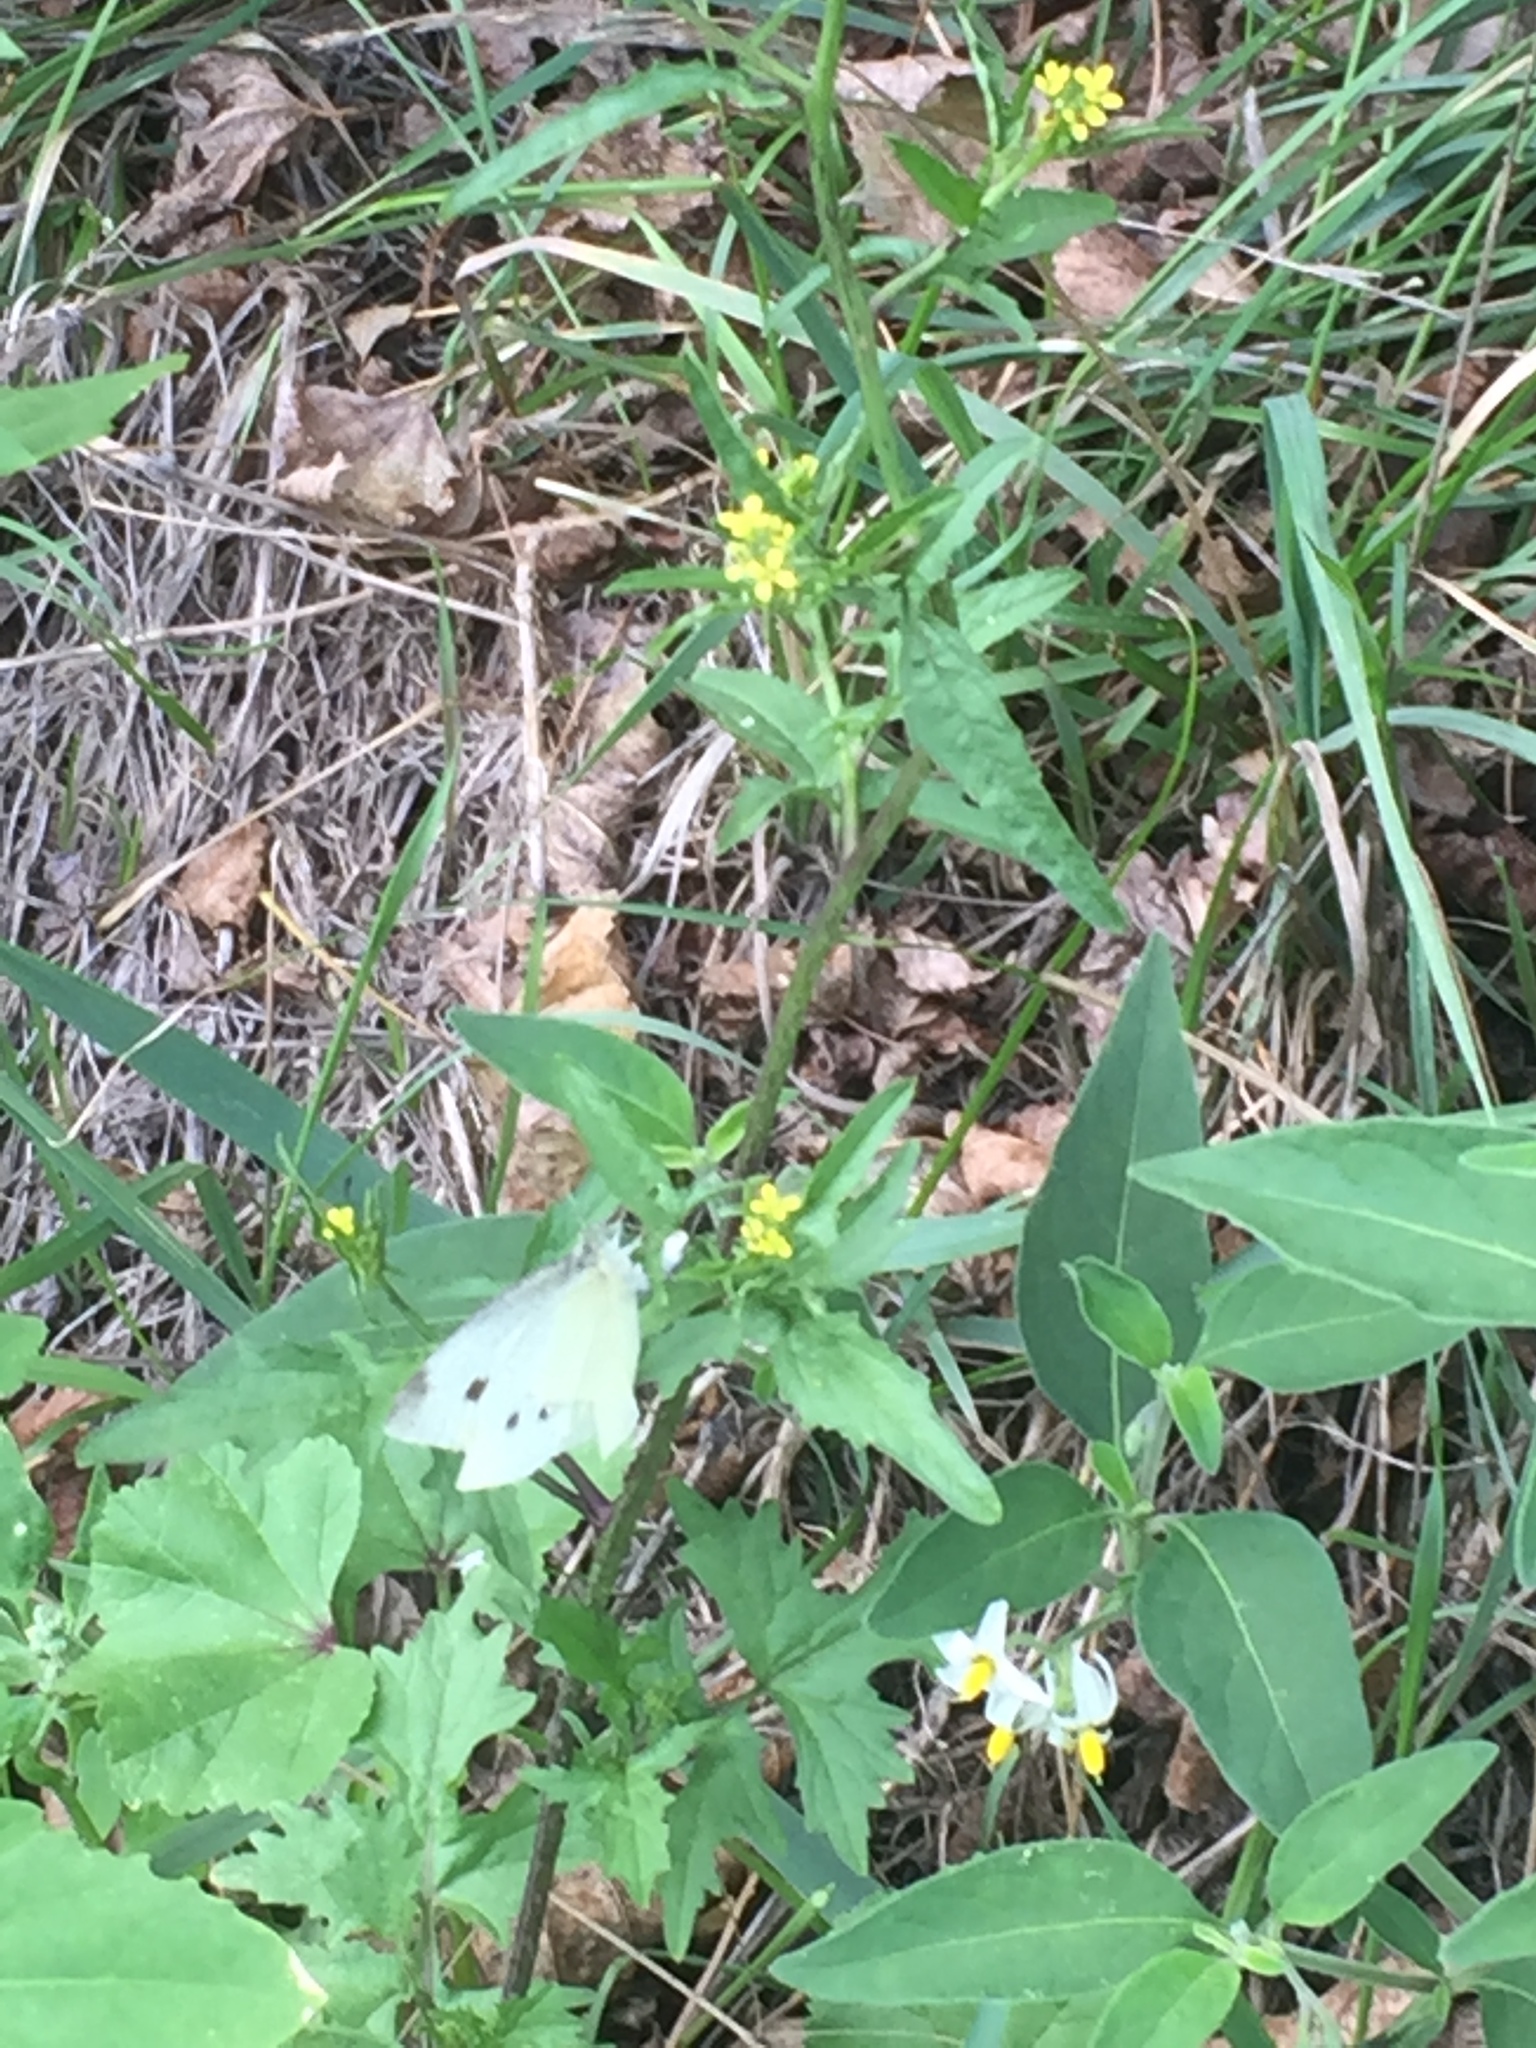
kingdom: Plantae
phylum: Tracheophyta
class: Magnoliopsida
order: Brassicales
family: Brassicaceae
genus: Sisymbrium
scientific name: Sisymbrium officinale
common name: Hedge mustard
